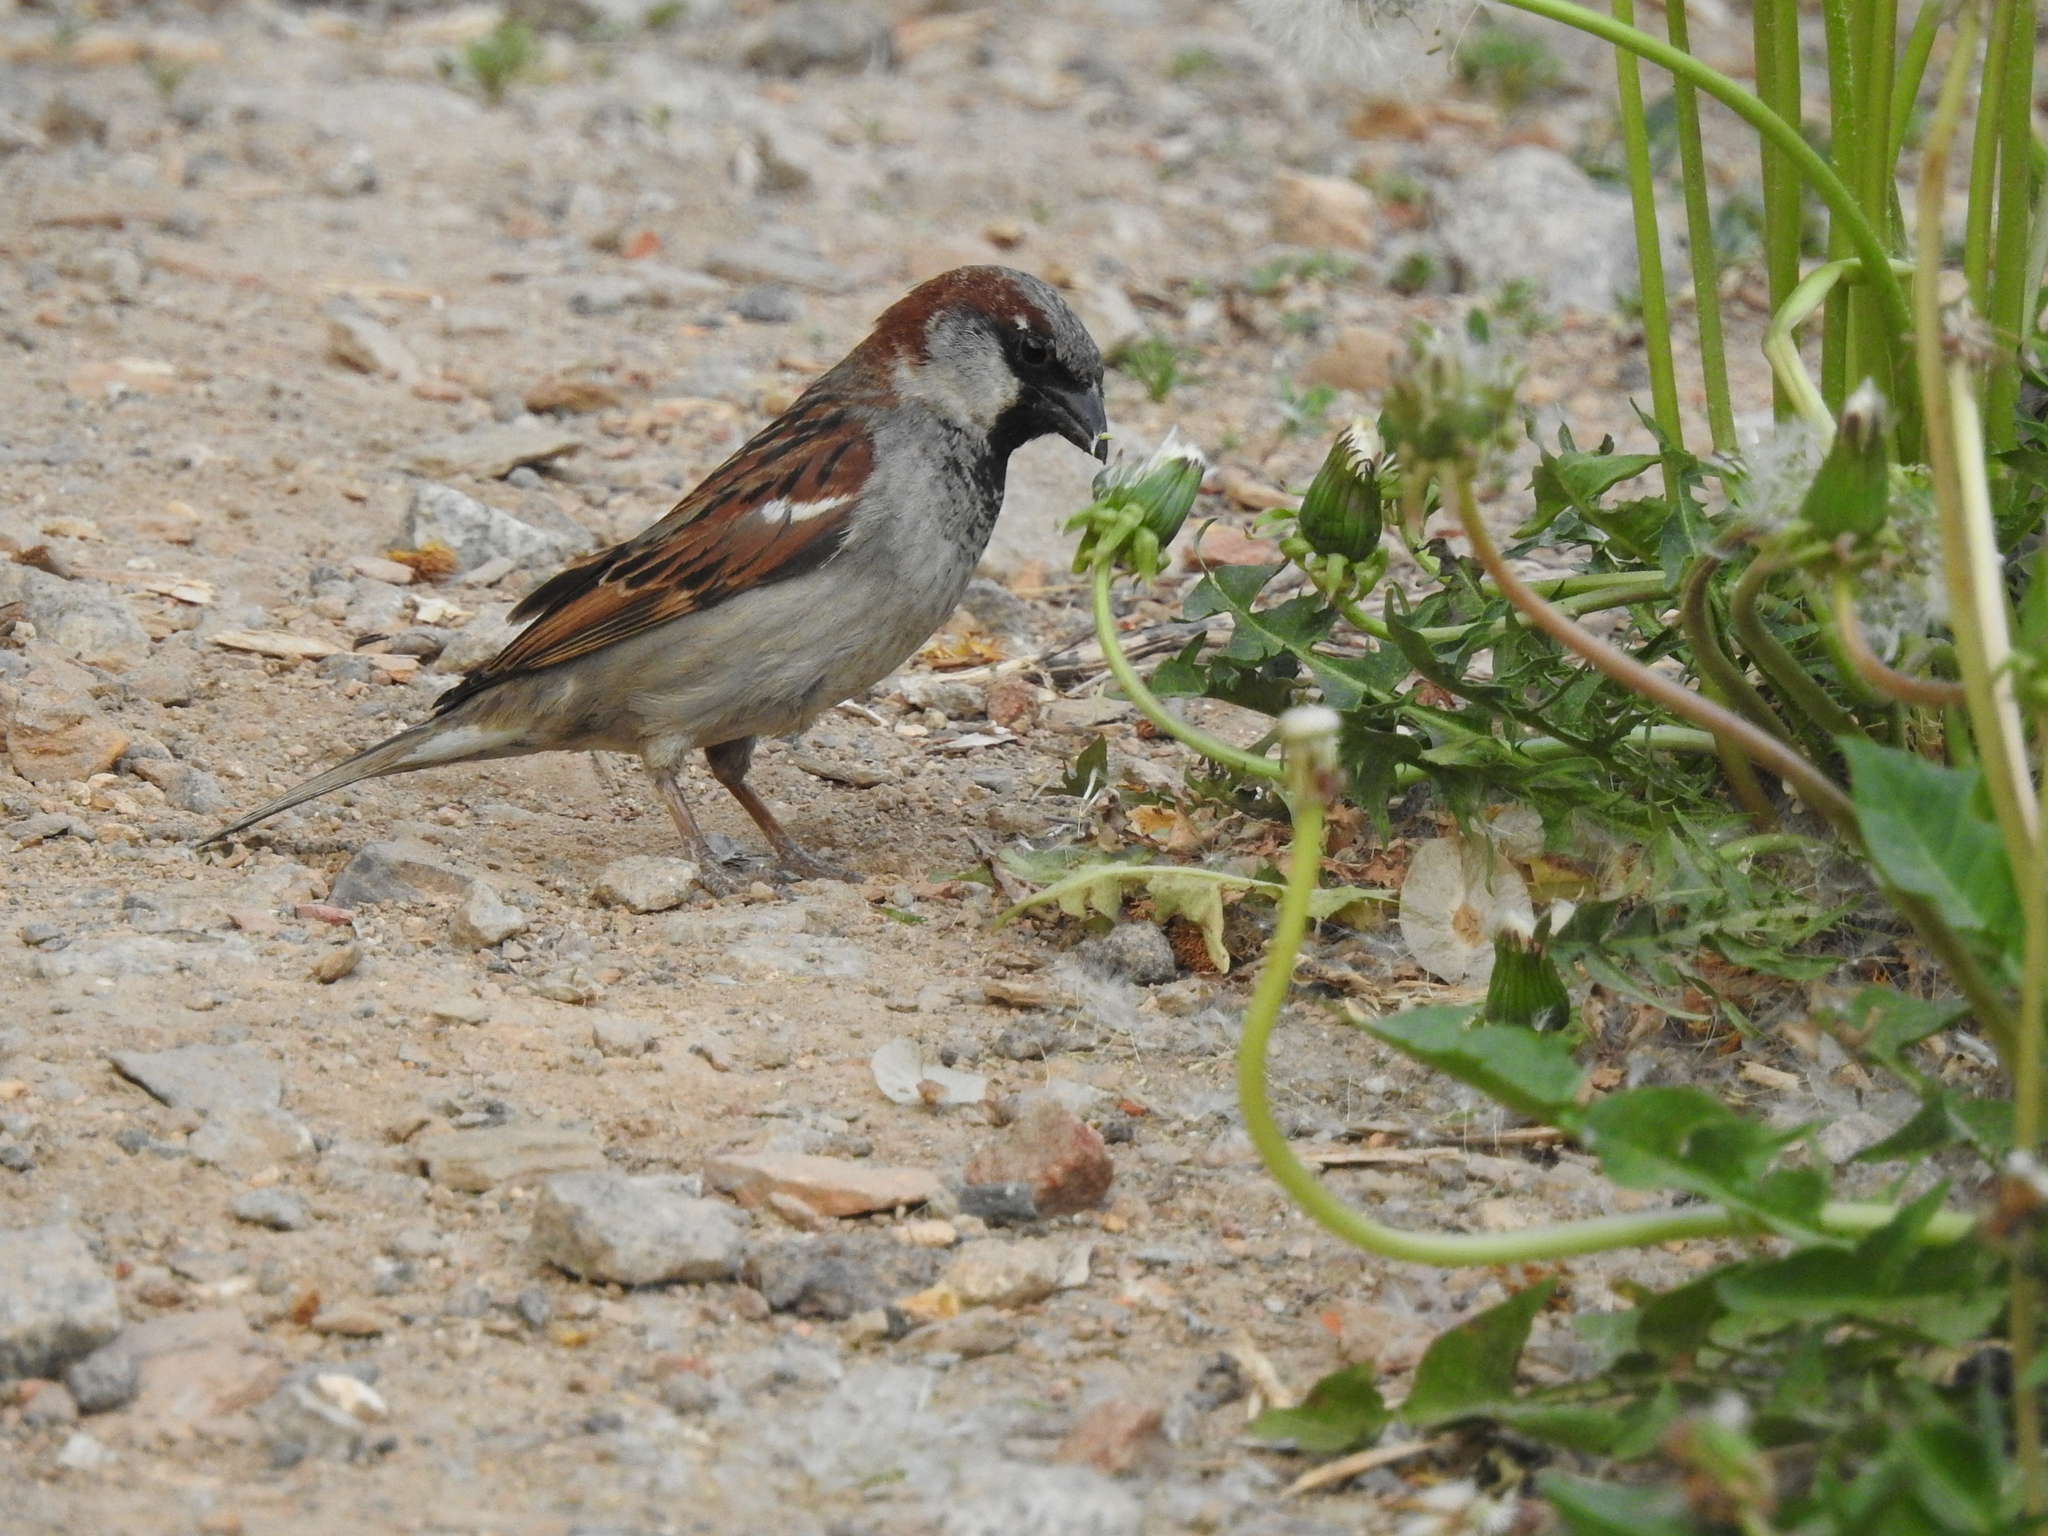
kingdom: Animalia
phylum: Chordata
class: Aves
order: Passeriformes
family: Passeridae
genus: Passer
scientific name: Passer domesticus
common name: House sparrow
